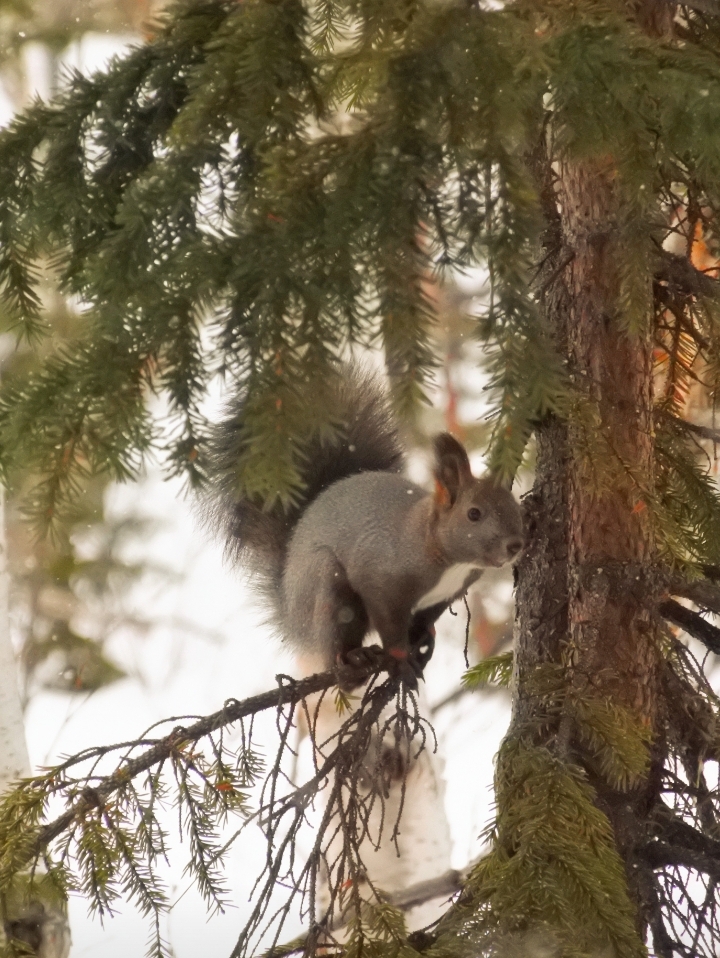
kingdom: Animalia
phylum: Chordata
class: Mammalia
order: Rodentia
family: Sciuridae
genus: Sciurus
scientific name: Sciurus vulgaris
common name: Eurasian red squirrel
